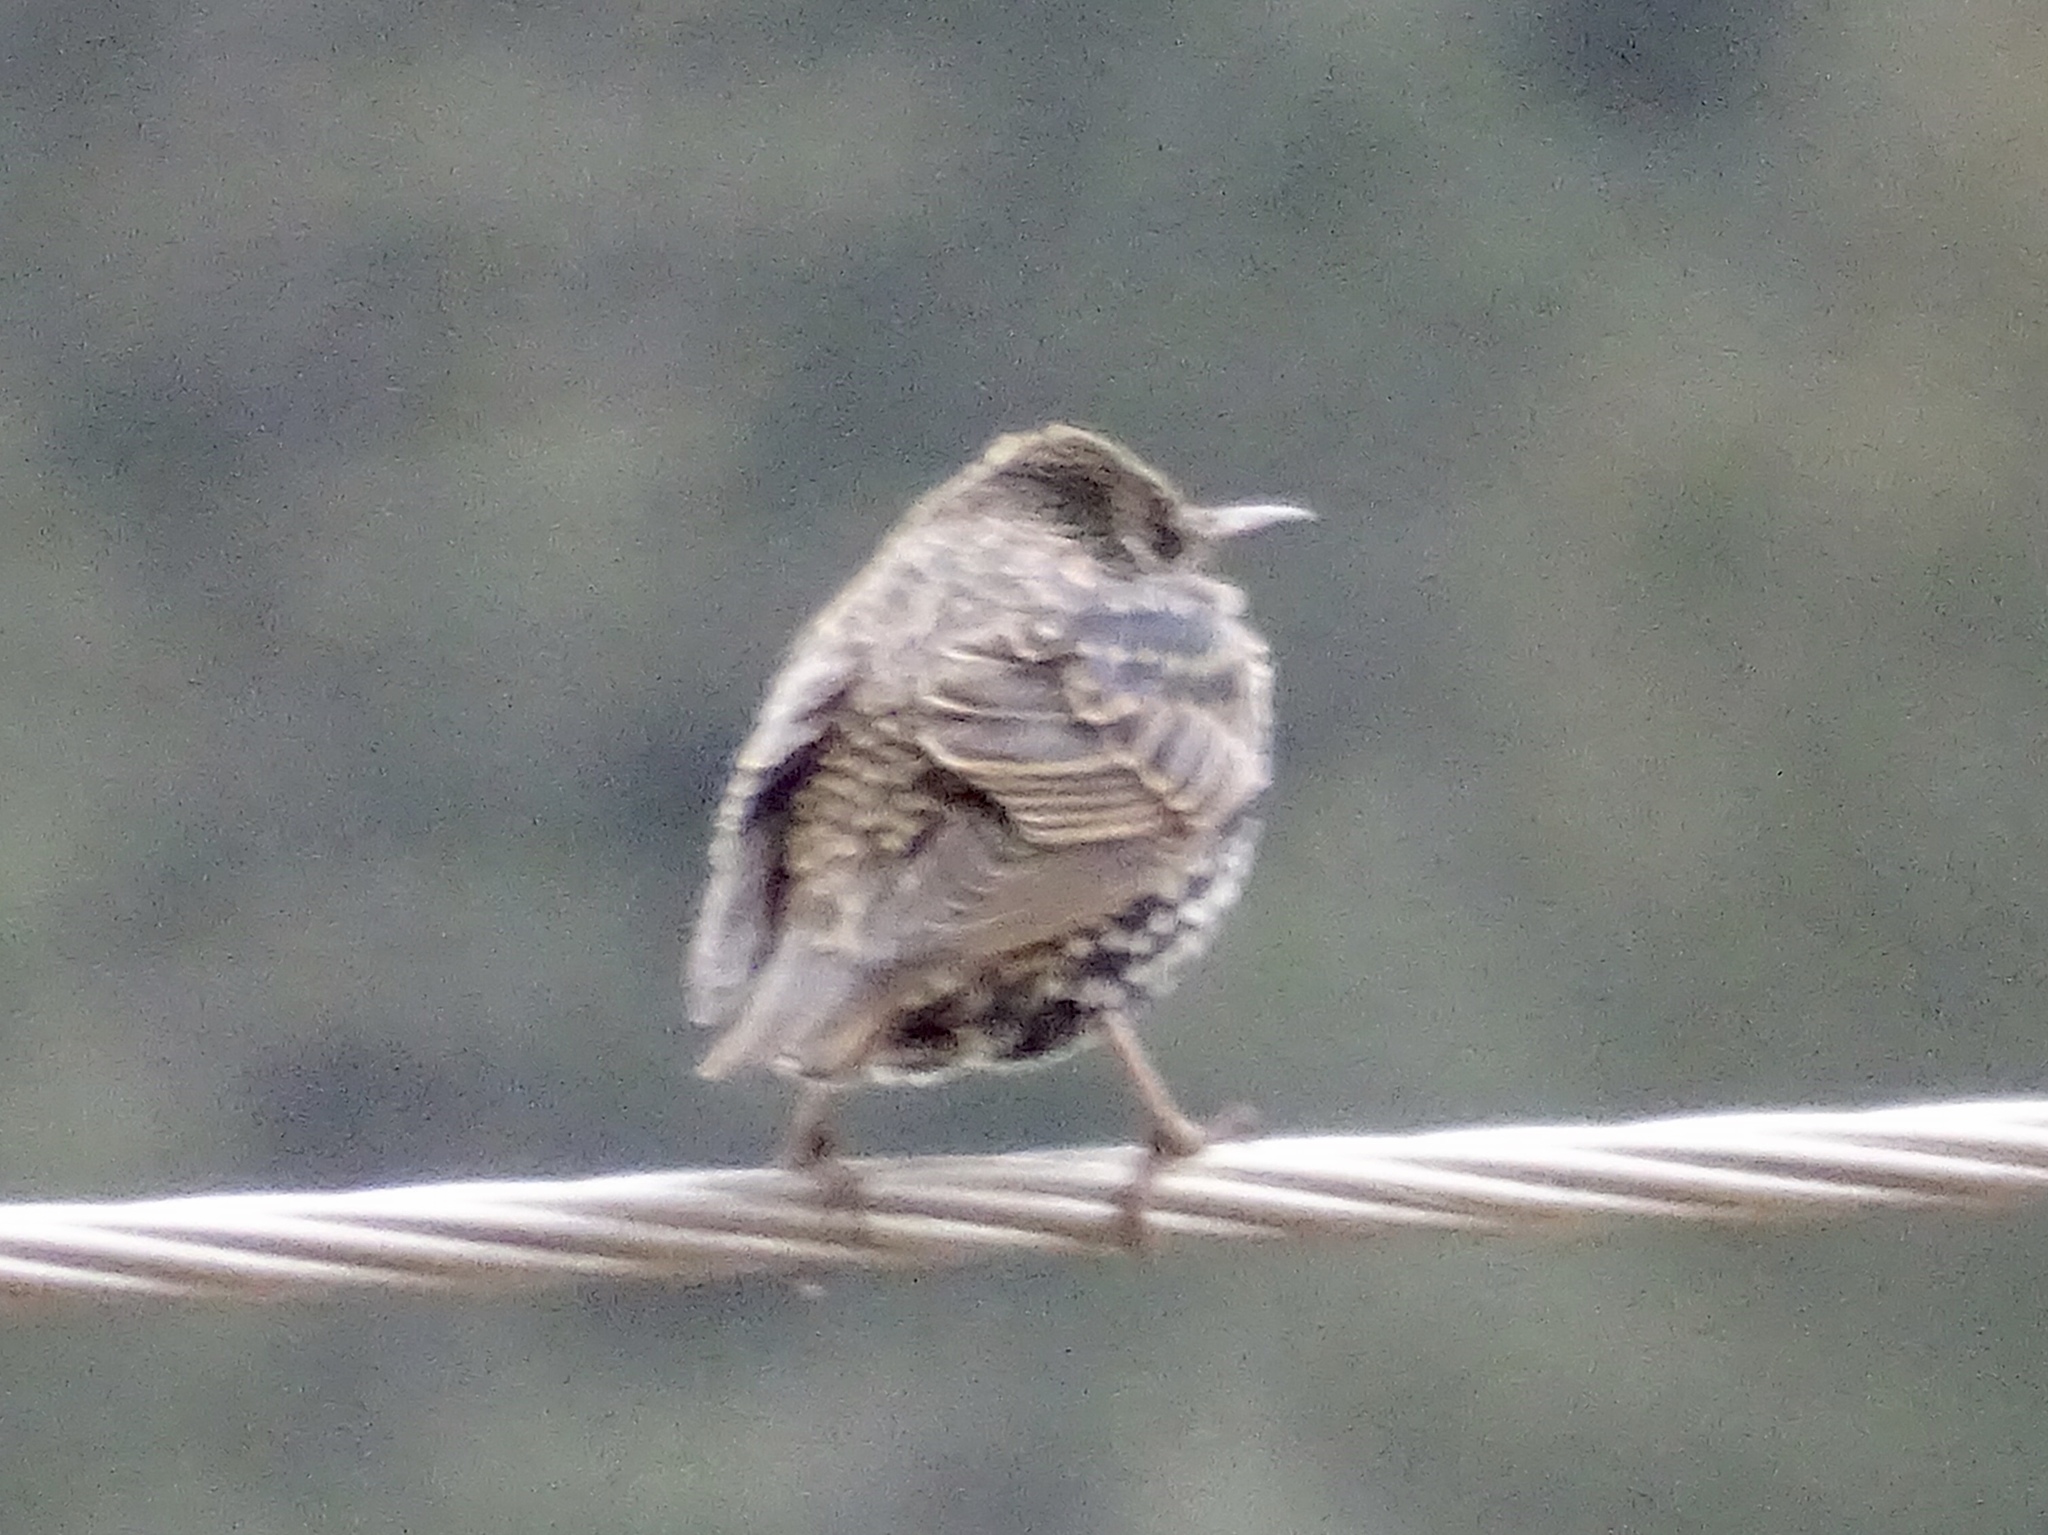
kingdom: Animalia
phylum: Chordata
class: Aves
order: Passeriformes
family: Sturnidae
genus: Sturnus
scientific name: Sturnus vulgaris
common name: Common starling
